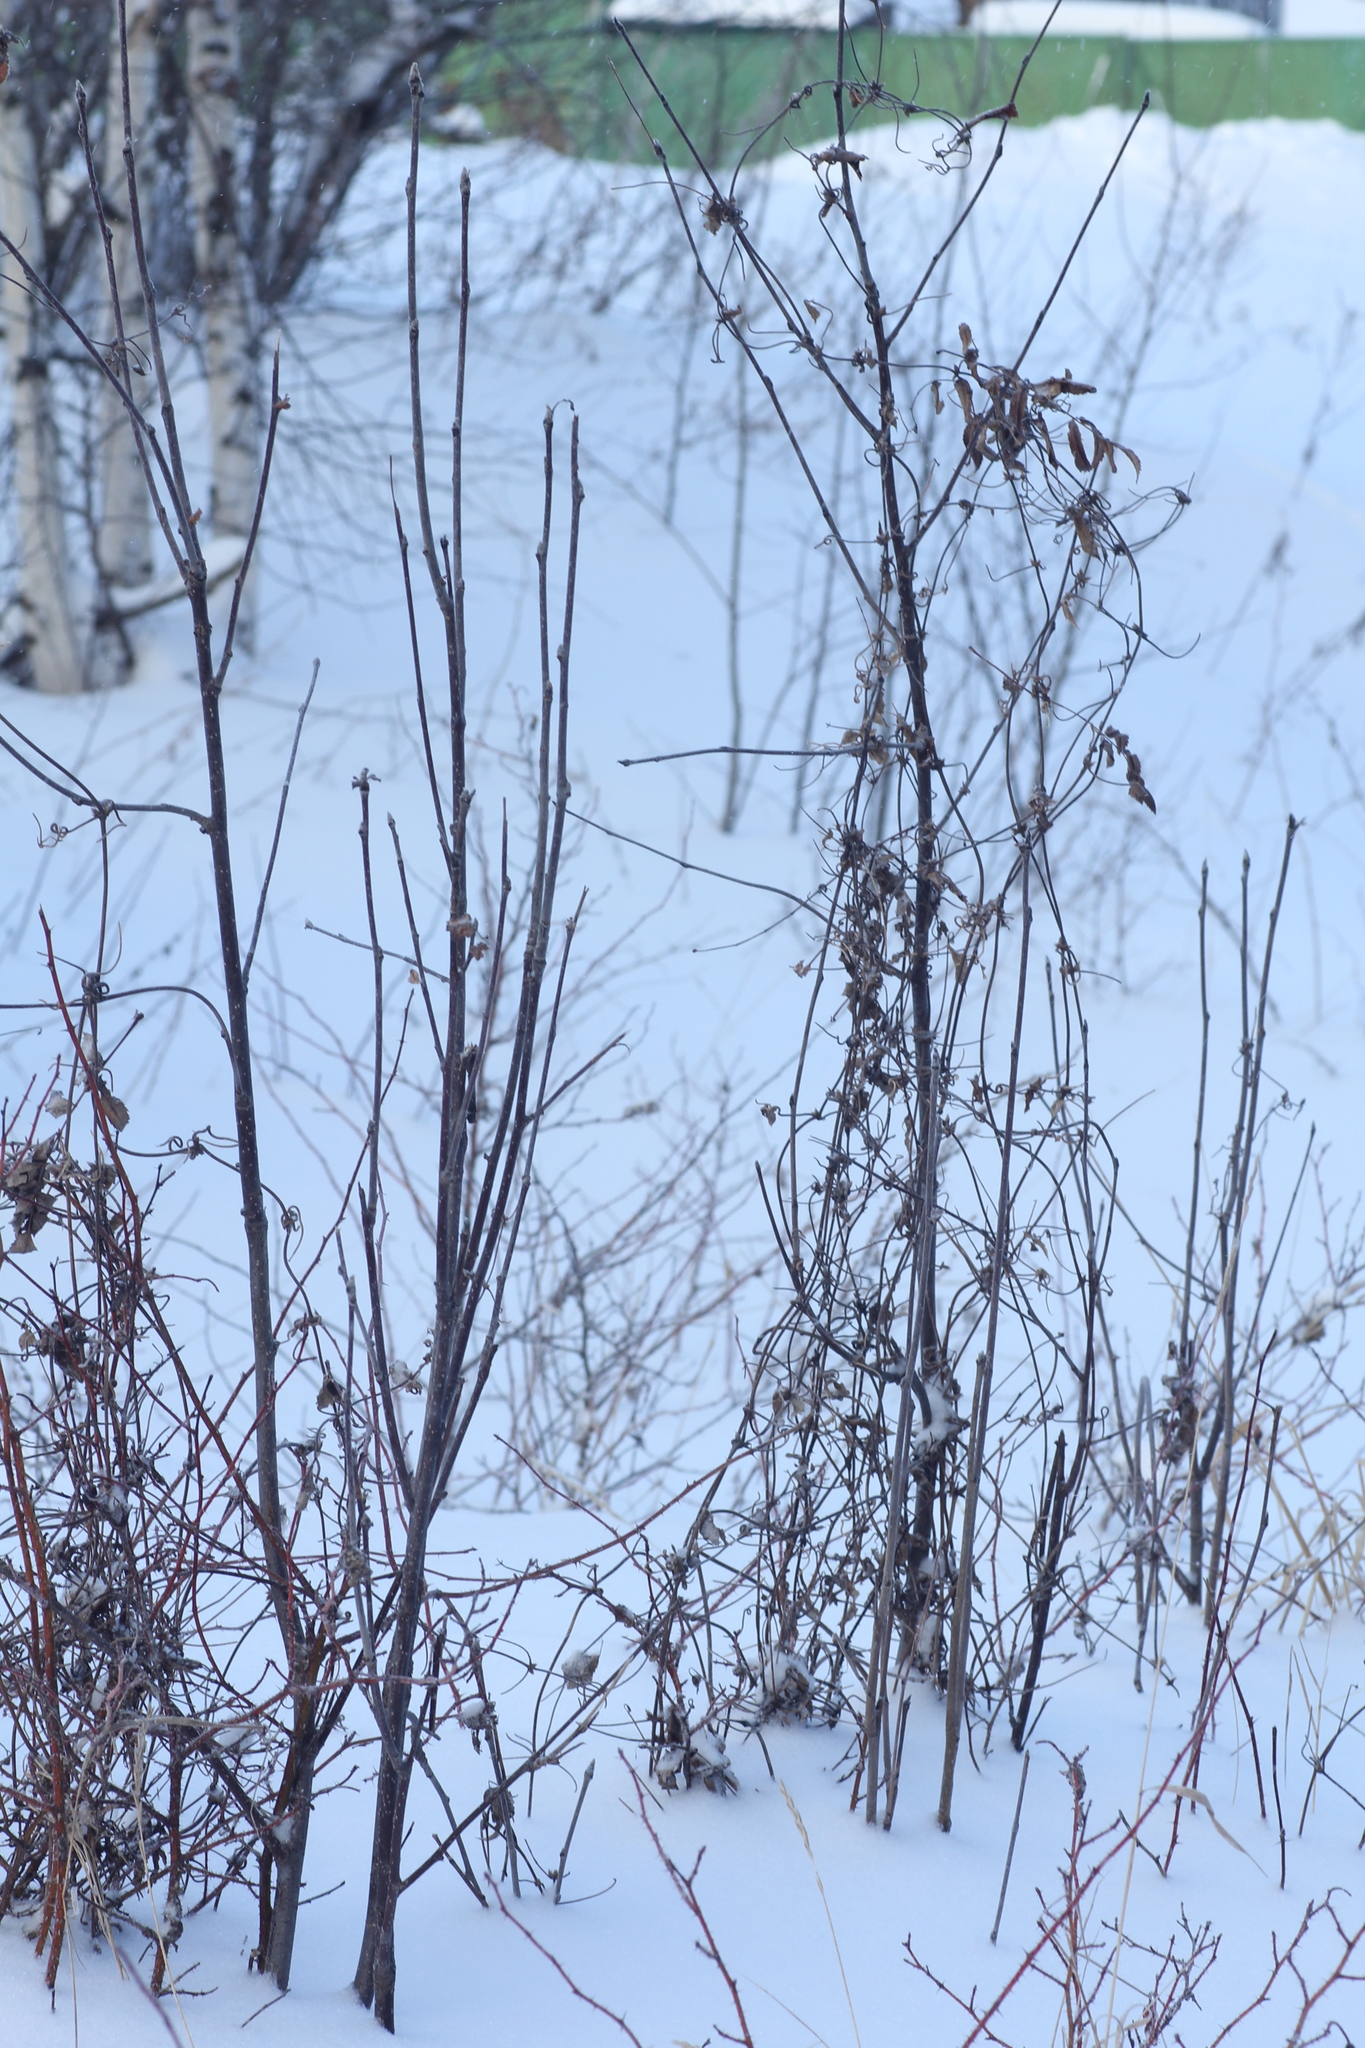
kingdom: Plantae
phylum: Tracheophyta
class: Magnoliopsida
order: Ranunculales
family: Ranunculaceae
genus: Clematis
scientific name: Clematis sibirica
